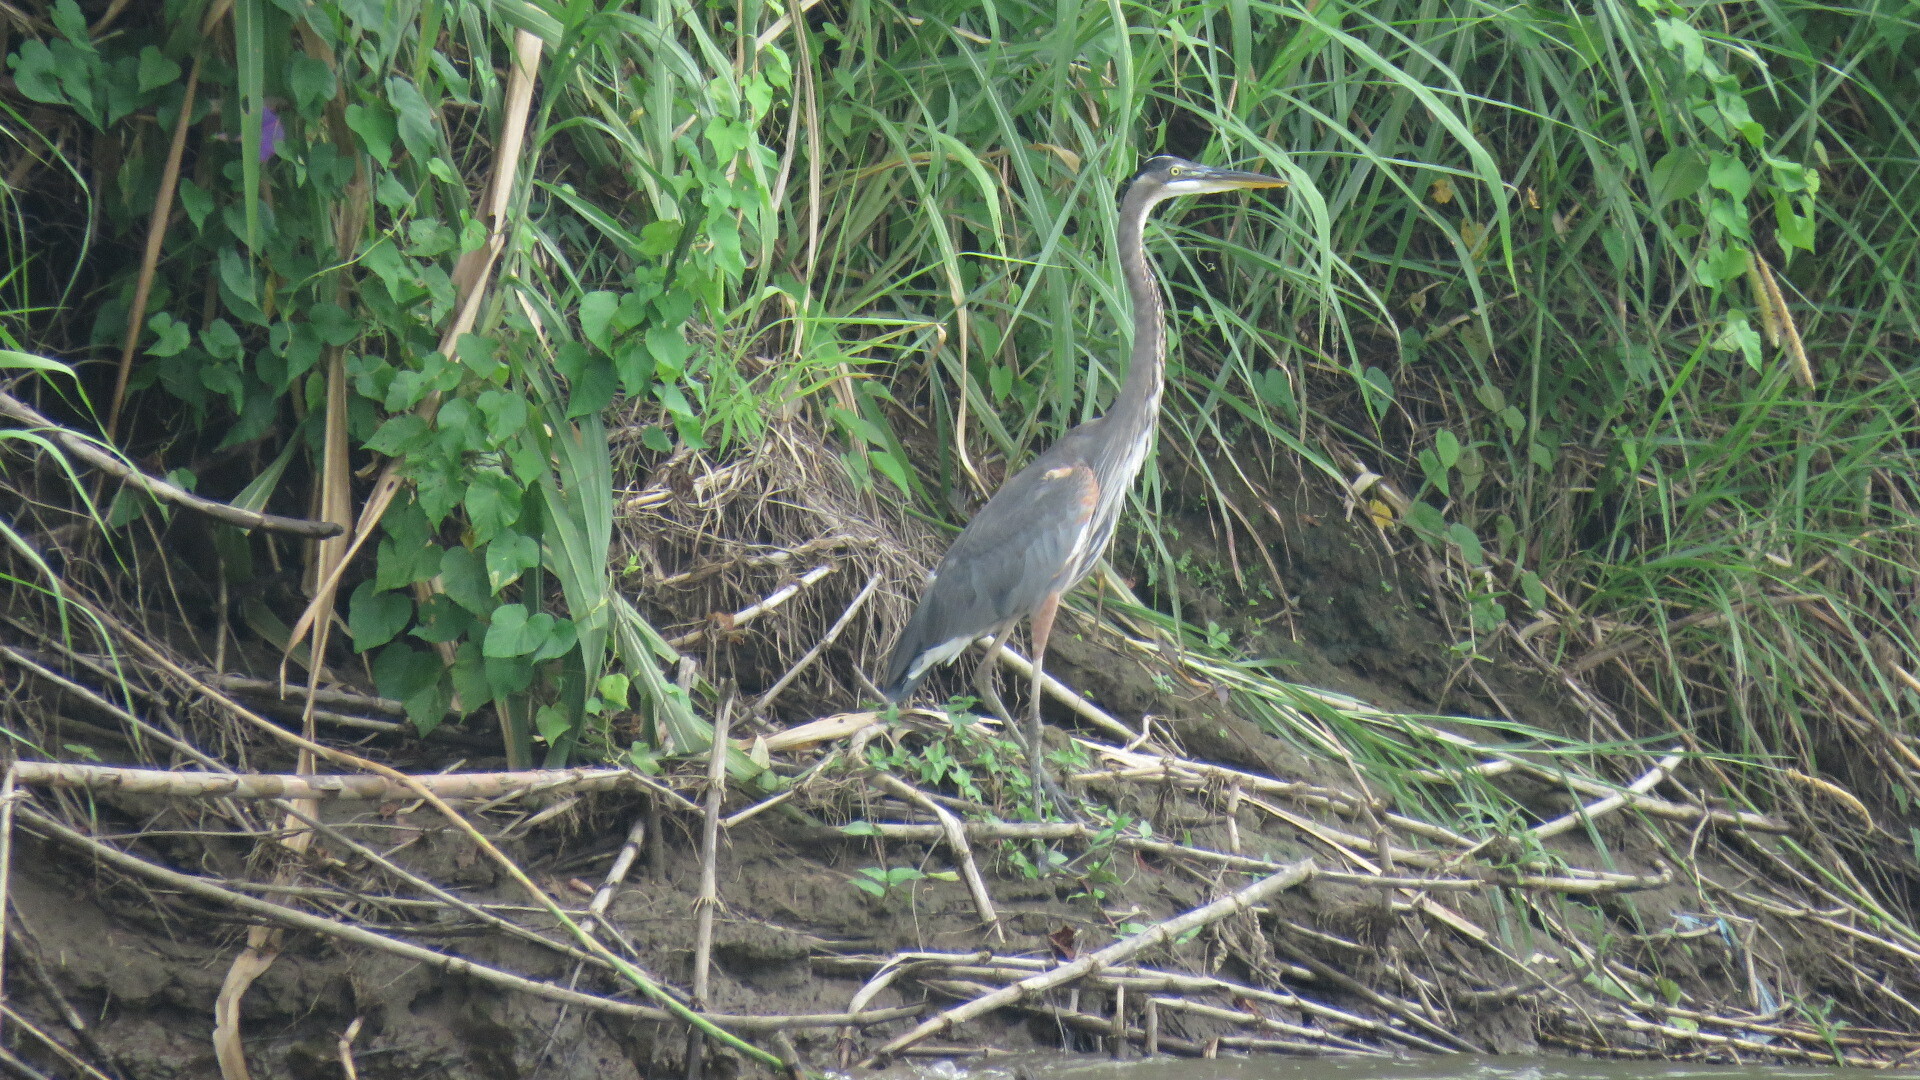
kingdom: Animalia
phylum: Chordata
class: Aves
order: Pelecaniformes
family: Ardeidae
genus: Ardea
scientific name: Ardea herodias
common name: Great blue heron
